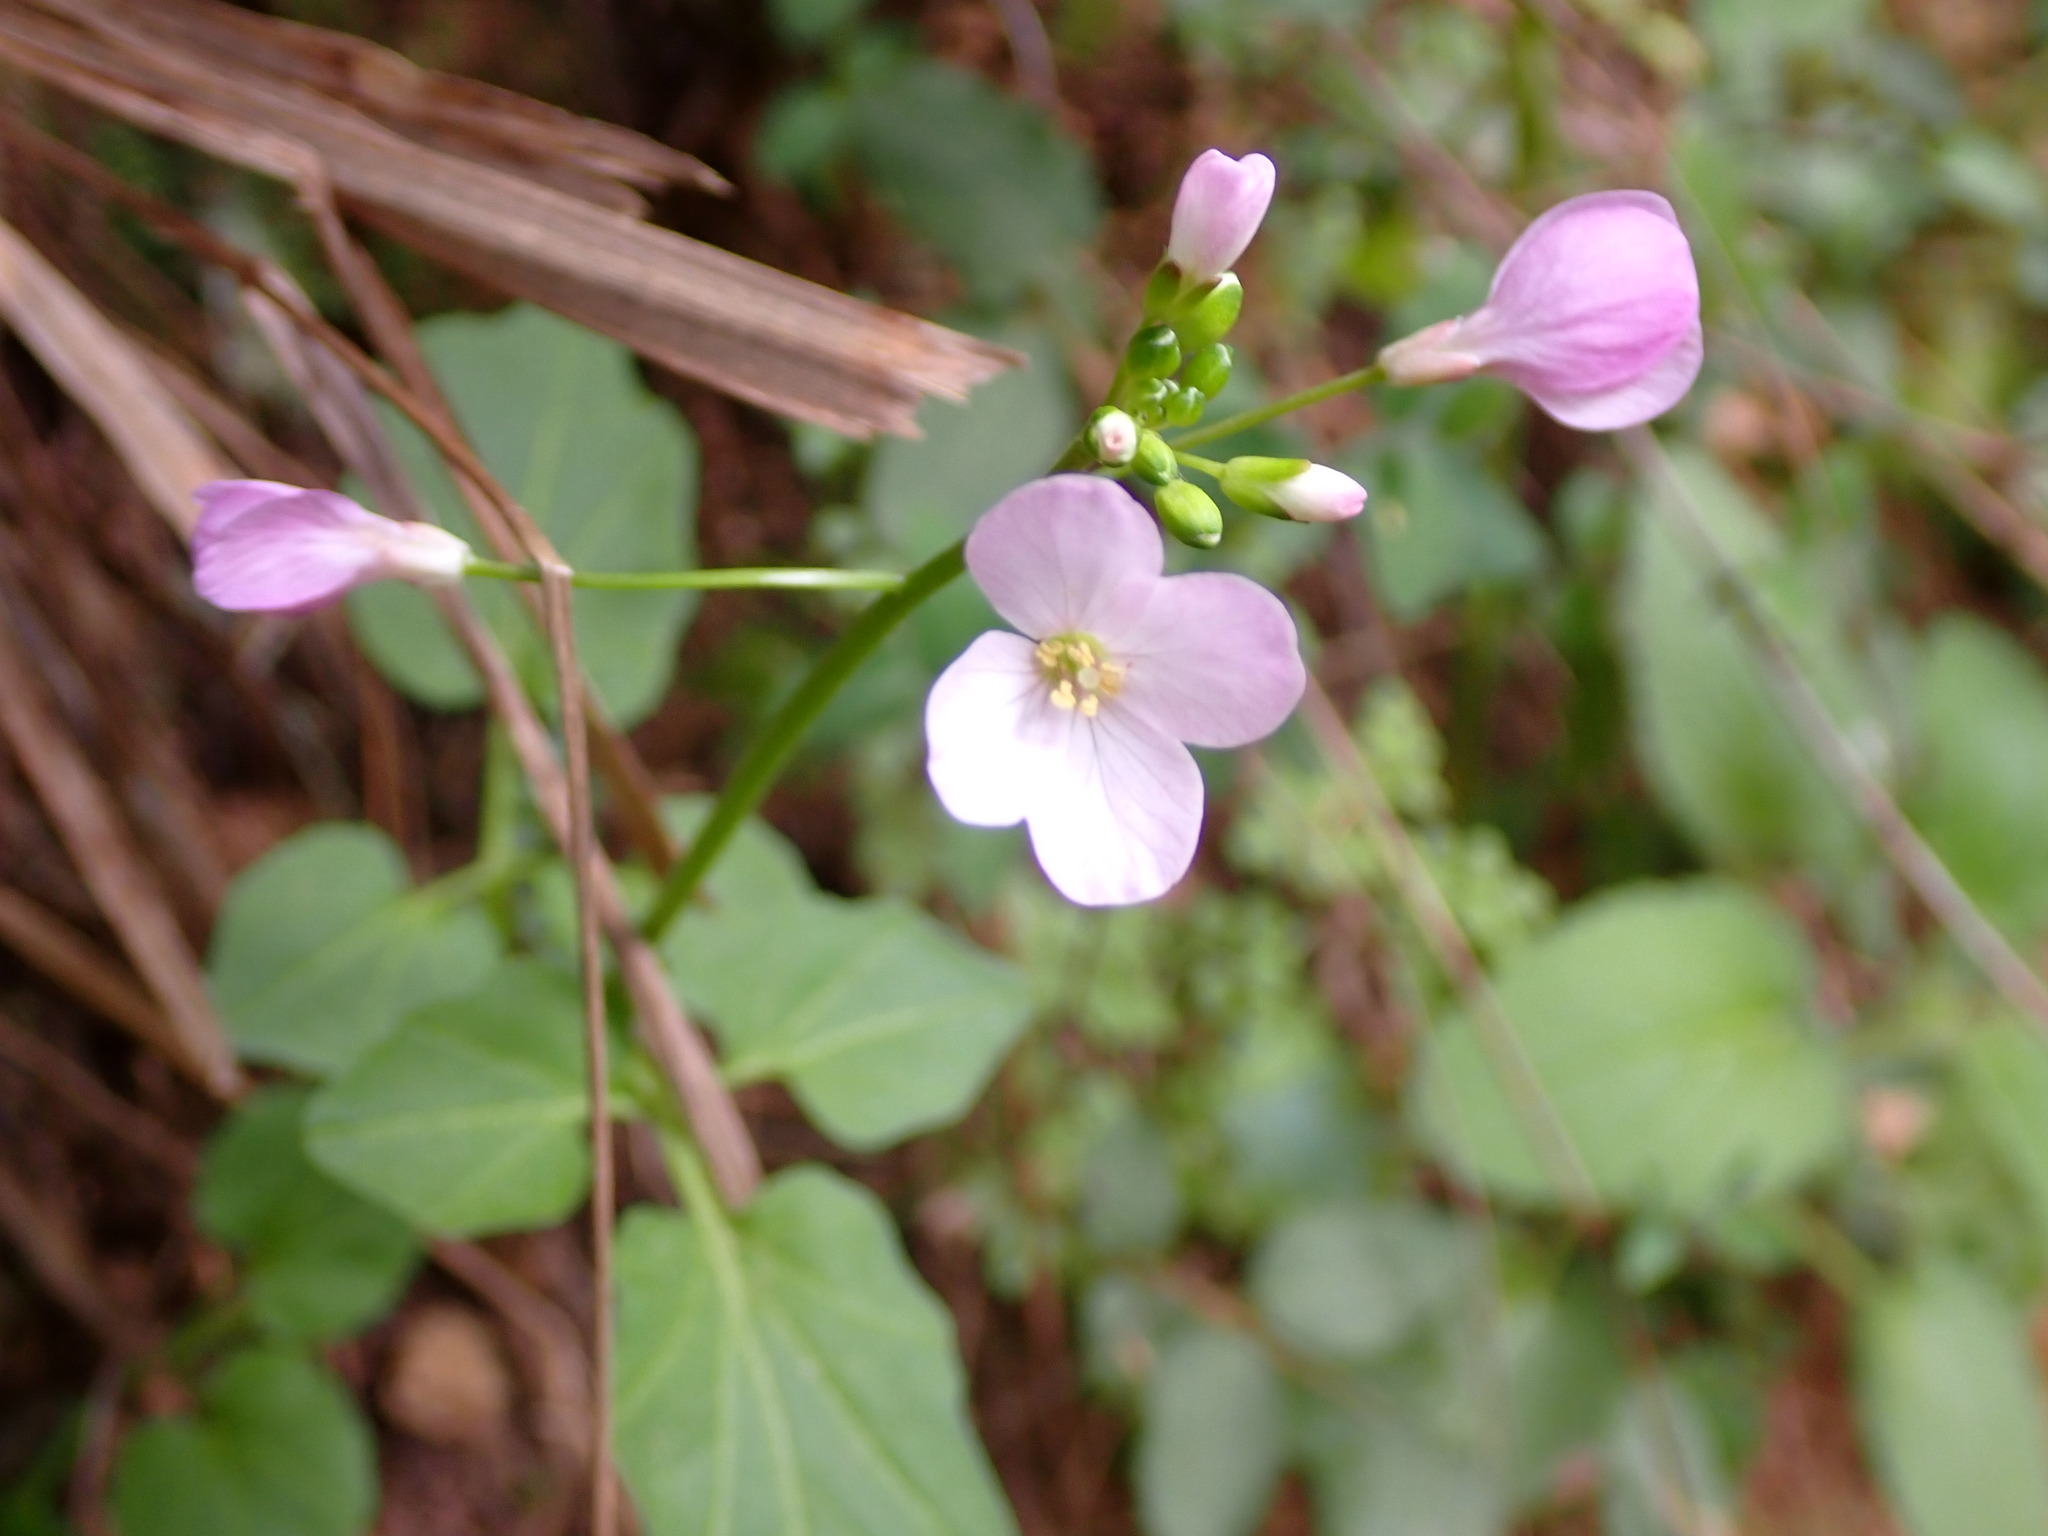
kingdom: Plantae
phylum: Tracheophyta
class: Magnoliopsida
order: Brassicales
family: Brassicaceae
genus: Cardamine
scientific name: Cardamine californica
